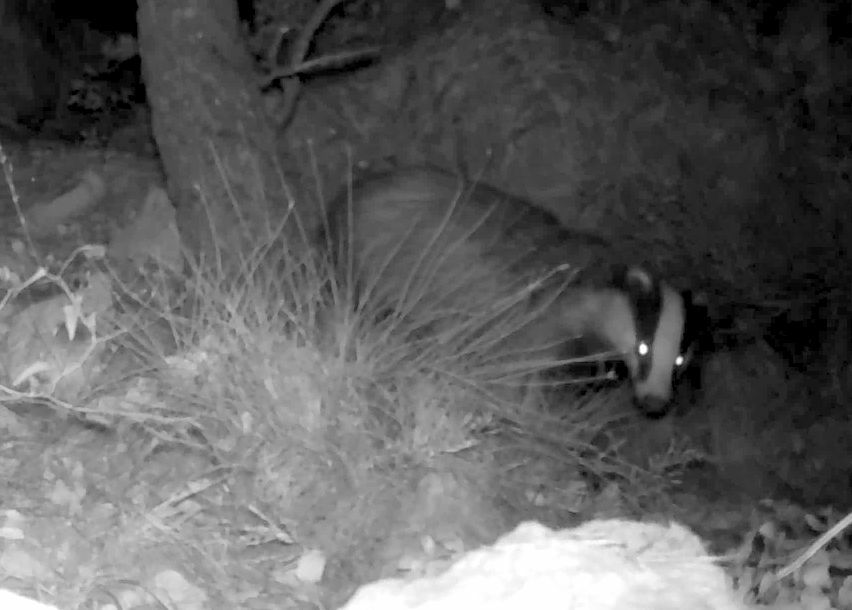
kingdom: Animalia
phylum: Chordata
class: Mammalia
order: Carnivora
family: Mustelidae
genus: Meles
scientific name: Meles meles
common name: Eurasian badger
